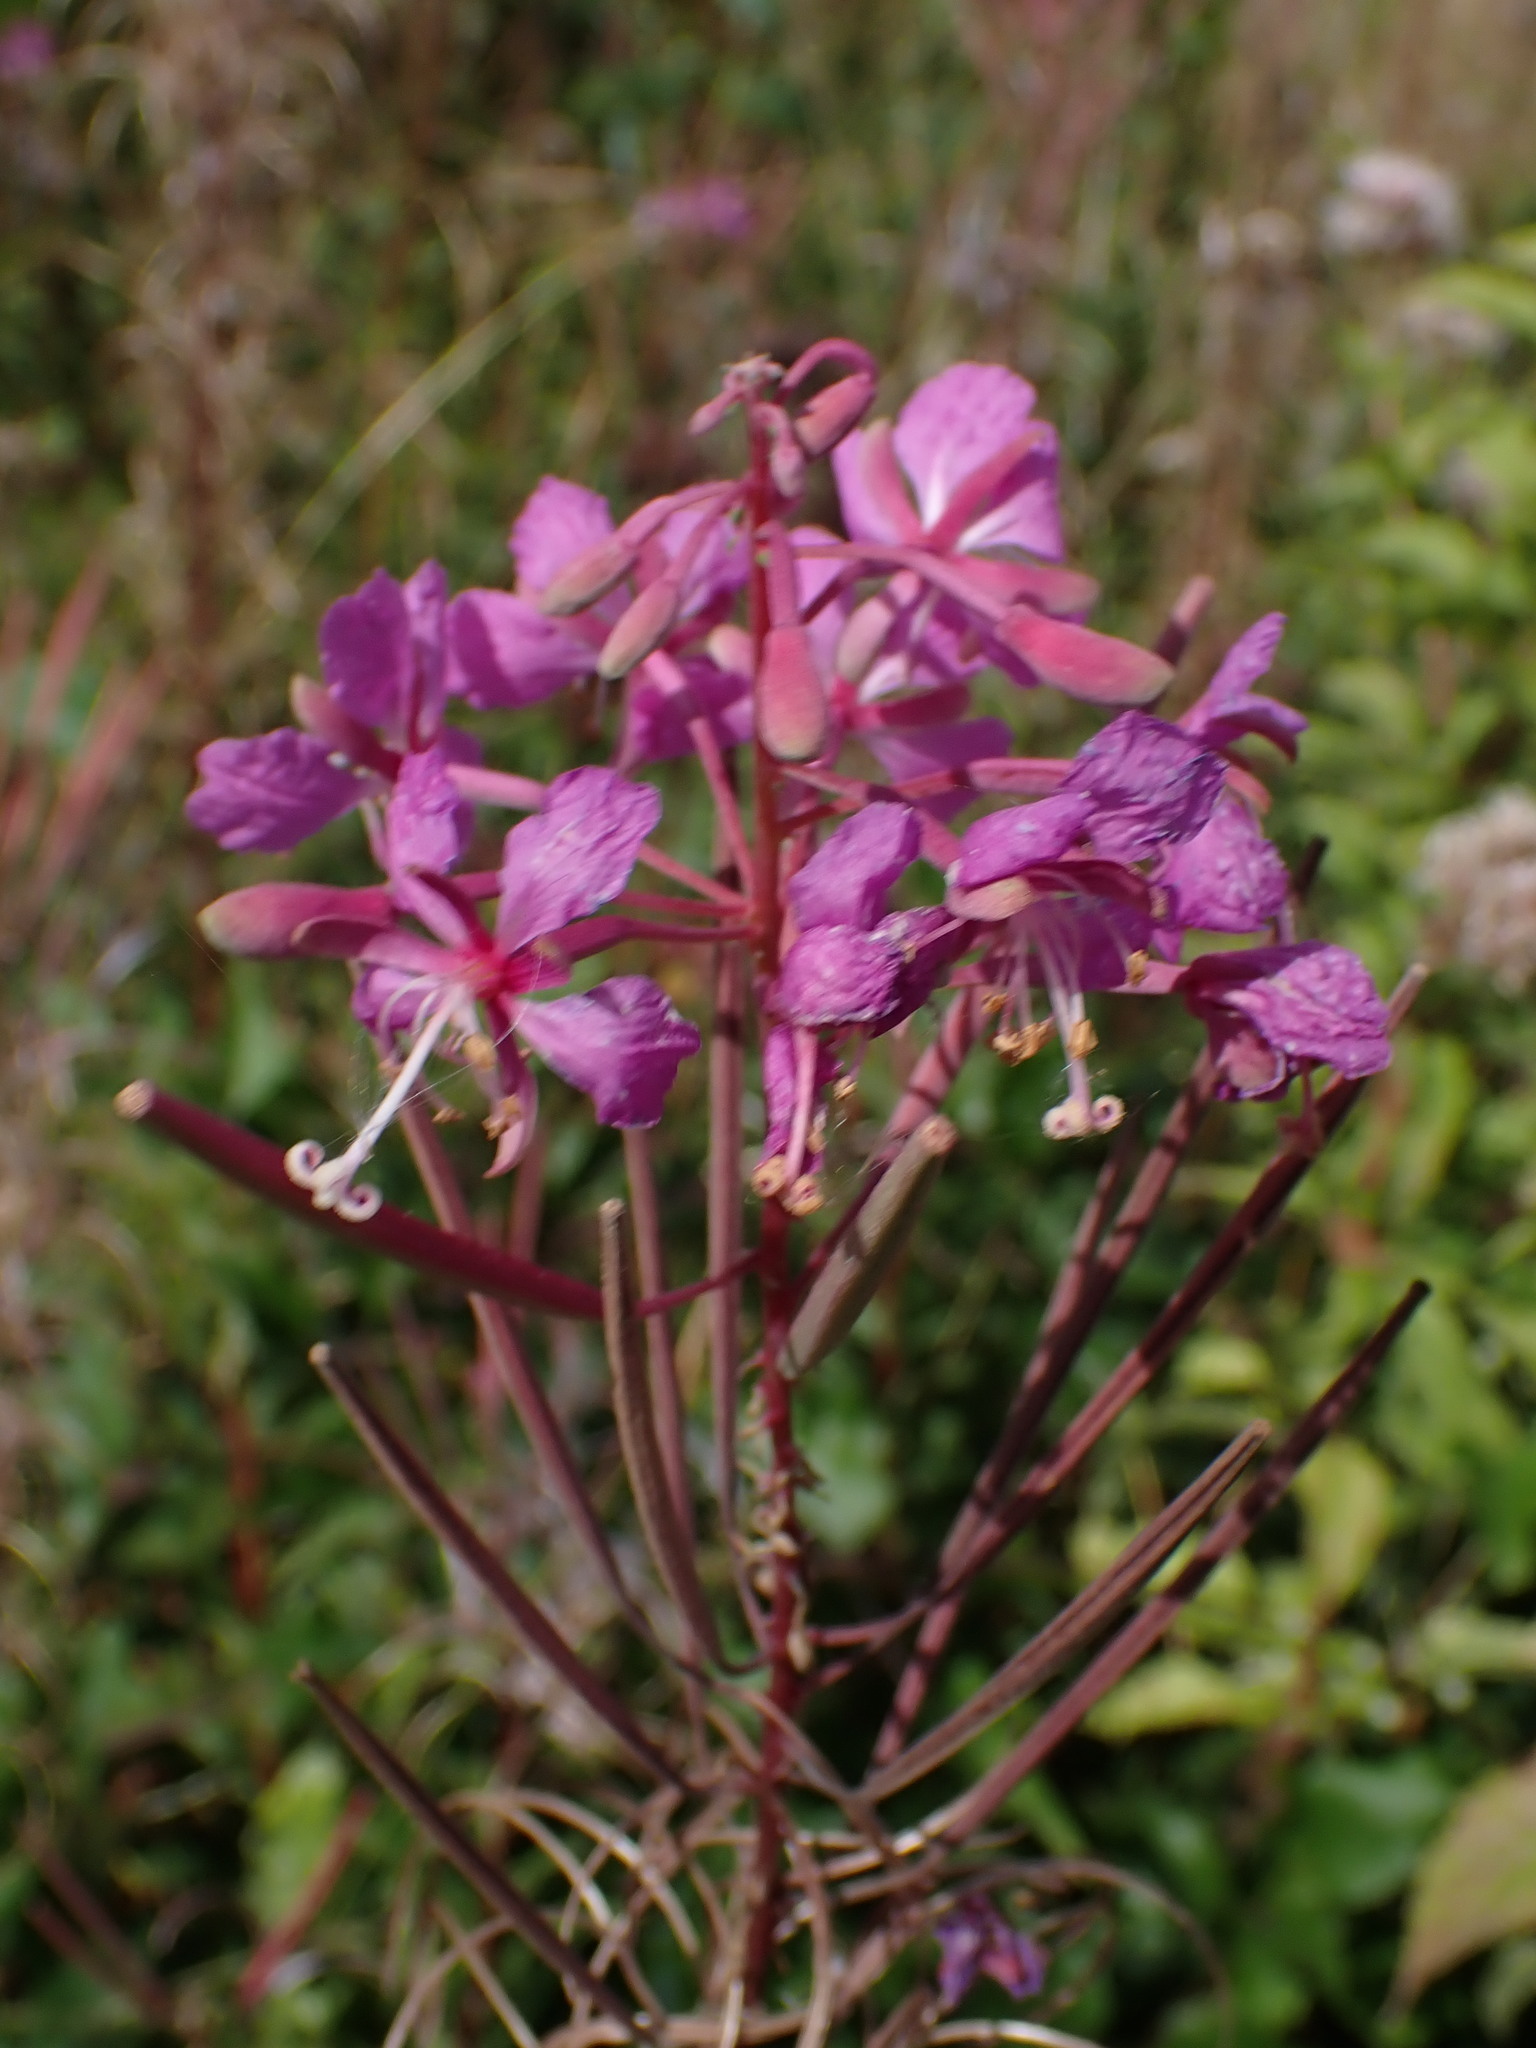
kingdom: Plantae
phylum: Tracheophyta
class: Magnoliopsida
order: Myrtales
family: Onagraceae
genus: Chamaenerion
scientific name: Chamaenerion angustifolium
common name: Fireweed
